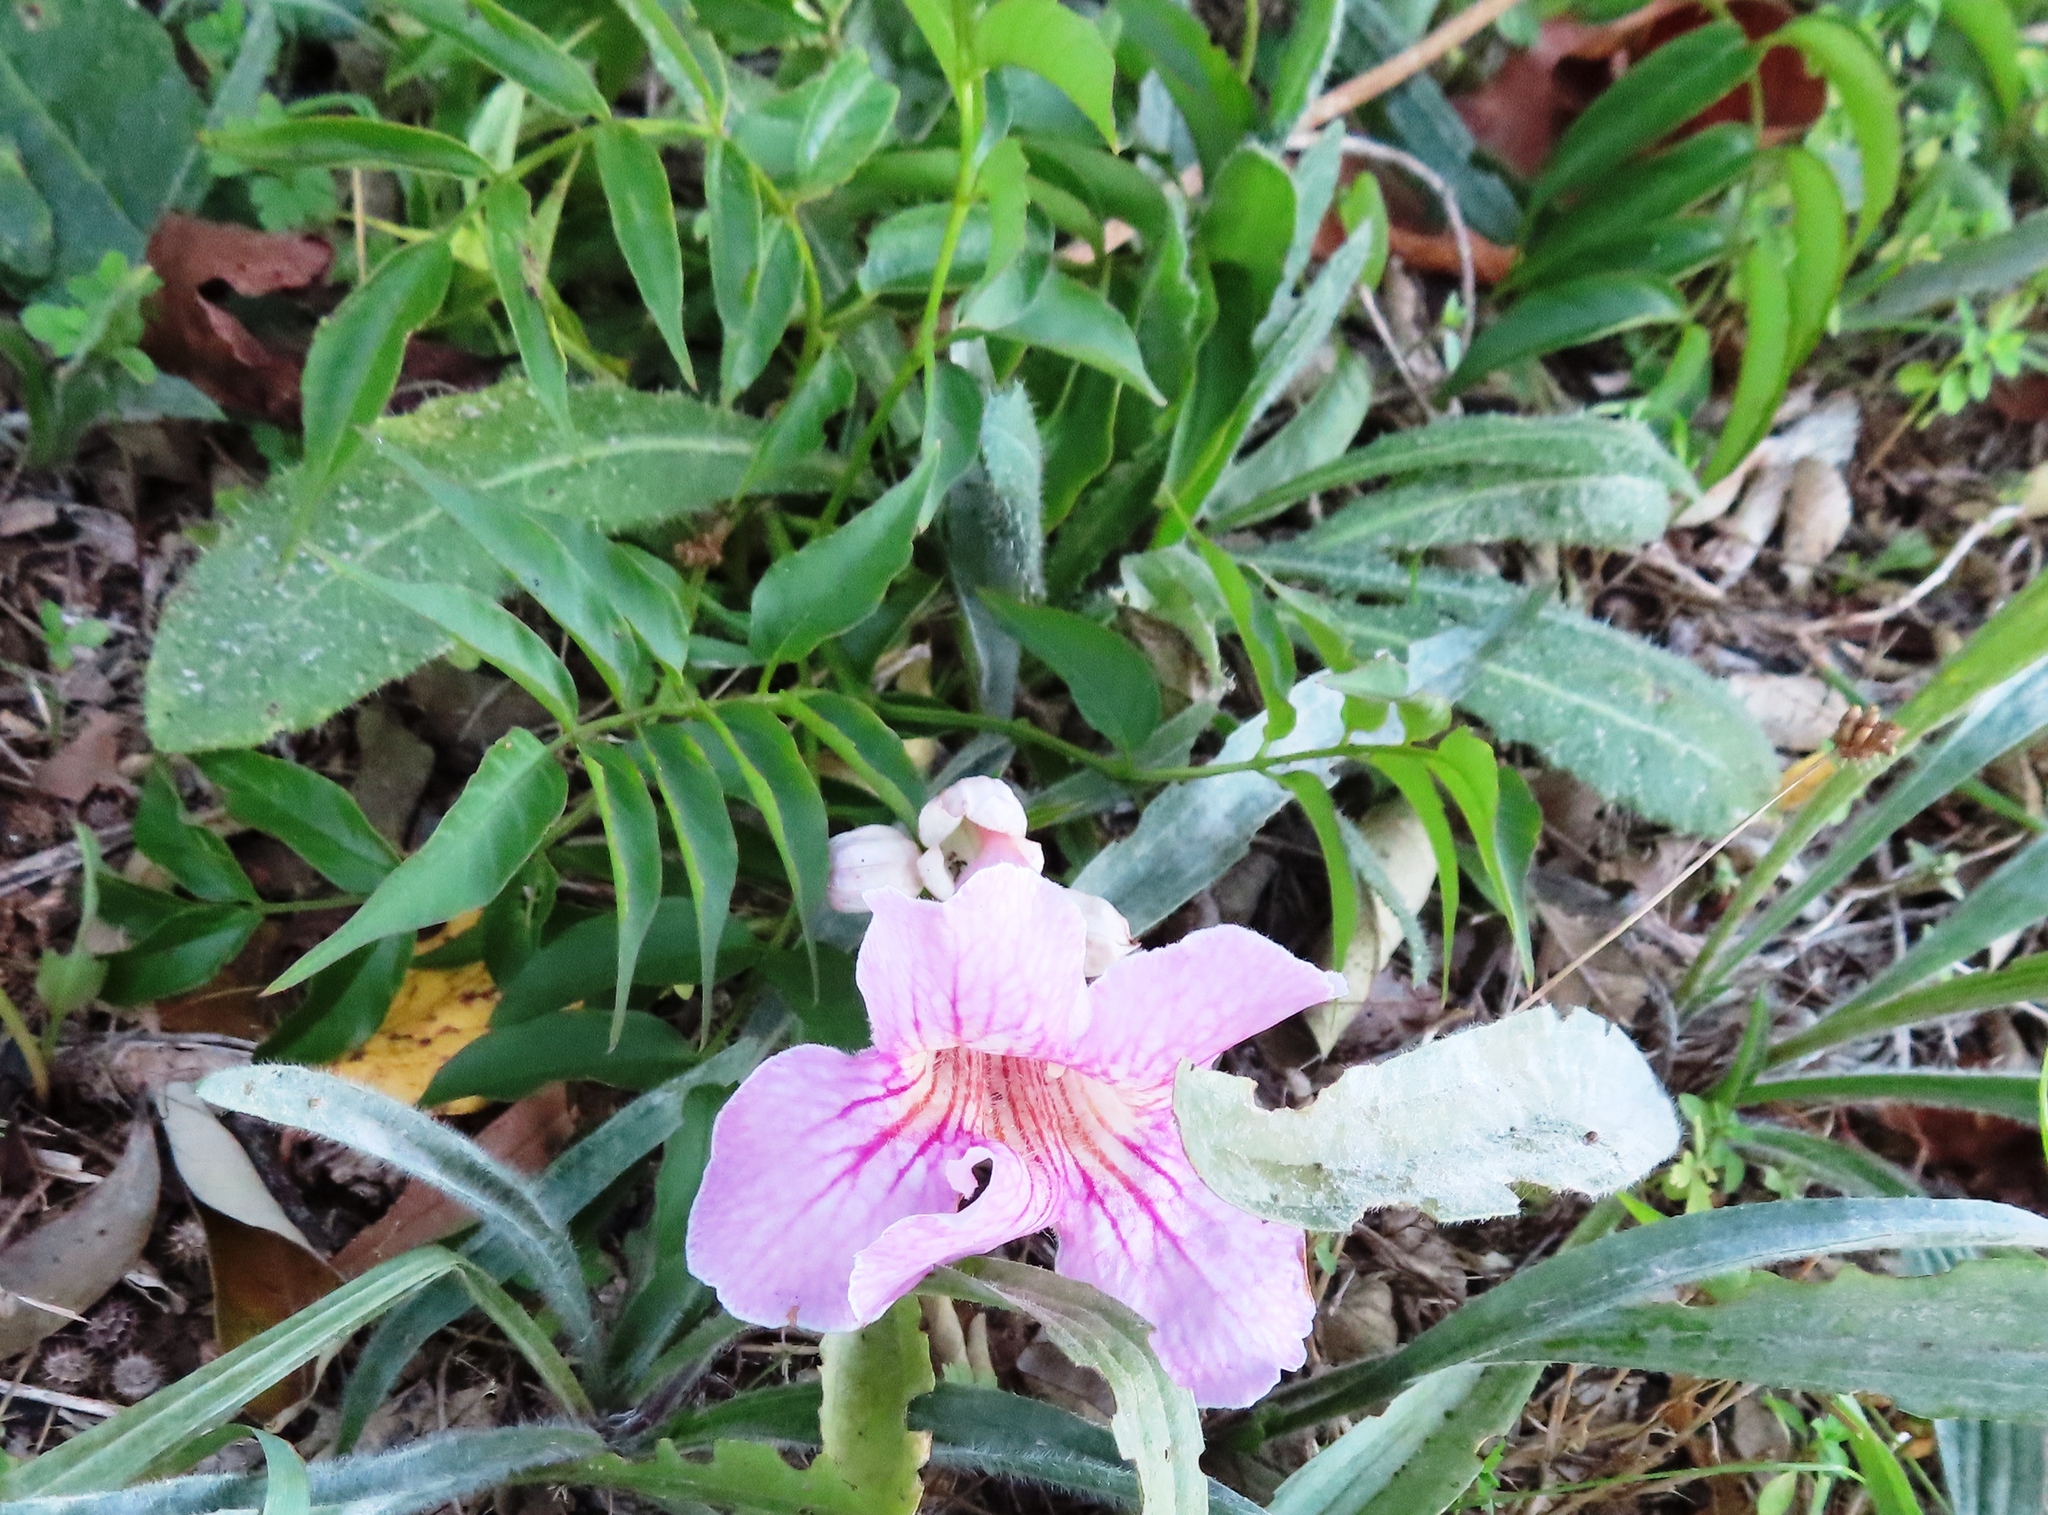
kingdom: Plantae
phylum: Tracheophyta
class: Magnoliopsida
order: Lamiales
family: Bignoniaceae
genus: Podranea
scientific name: Podranea ricasoliana
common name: Zimbabwe creeper
